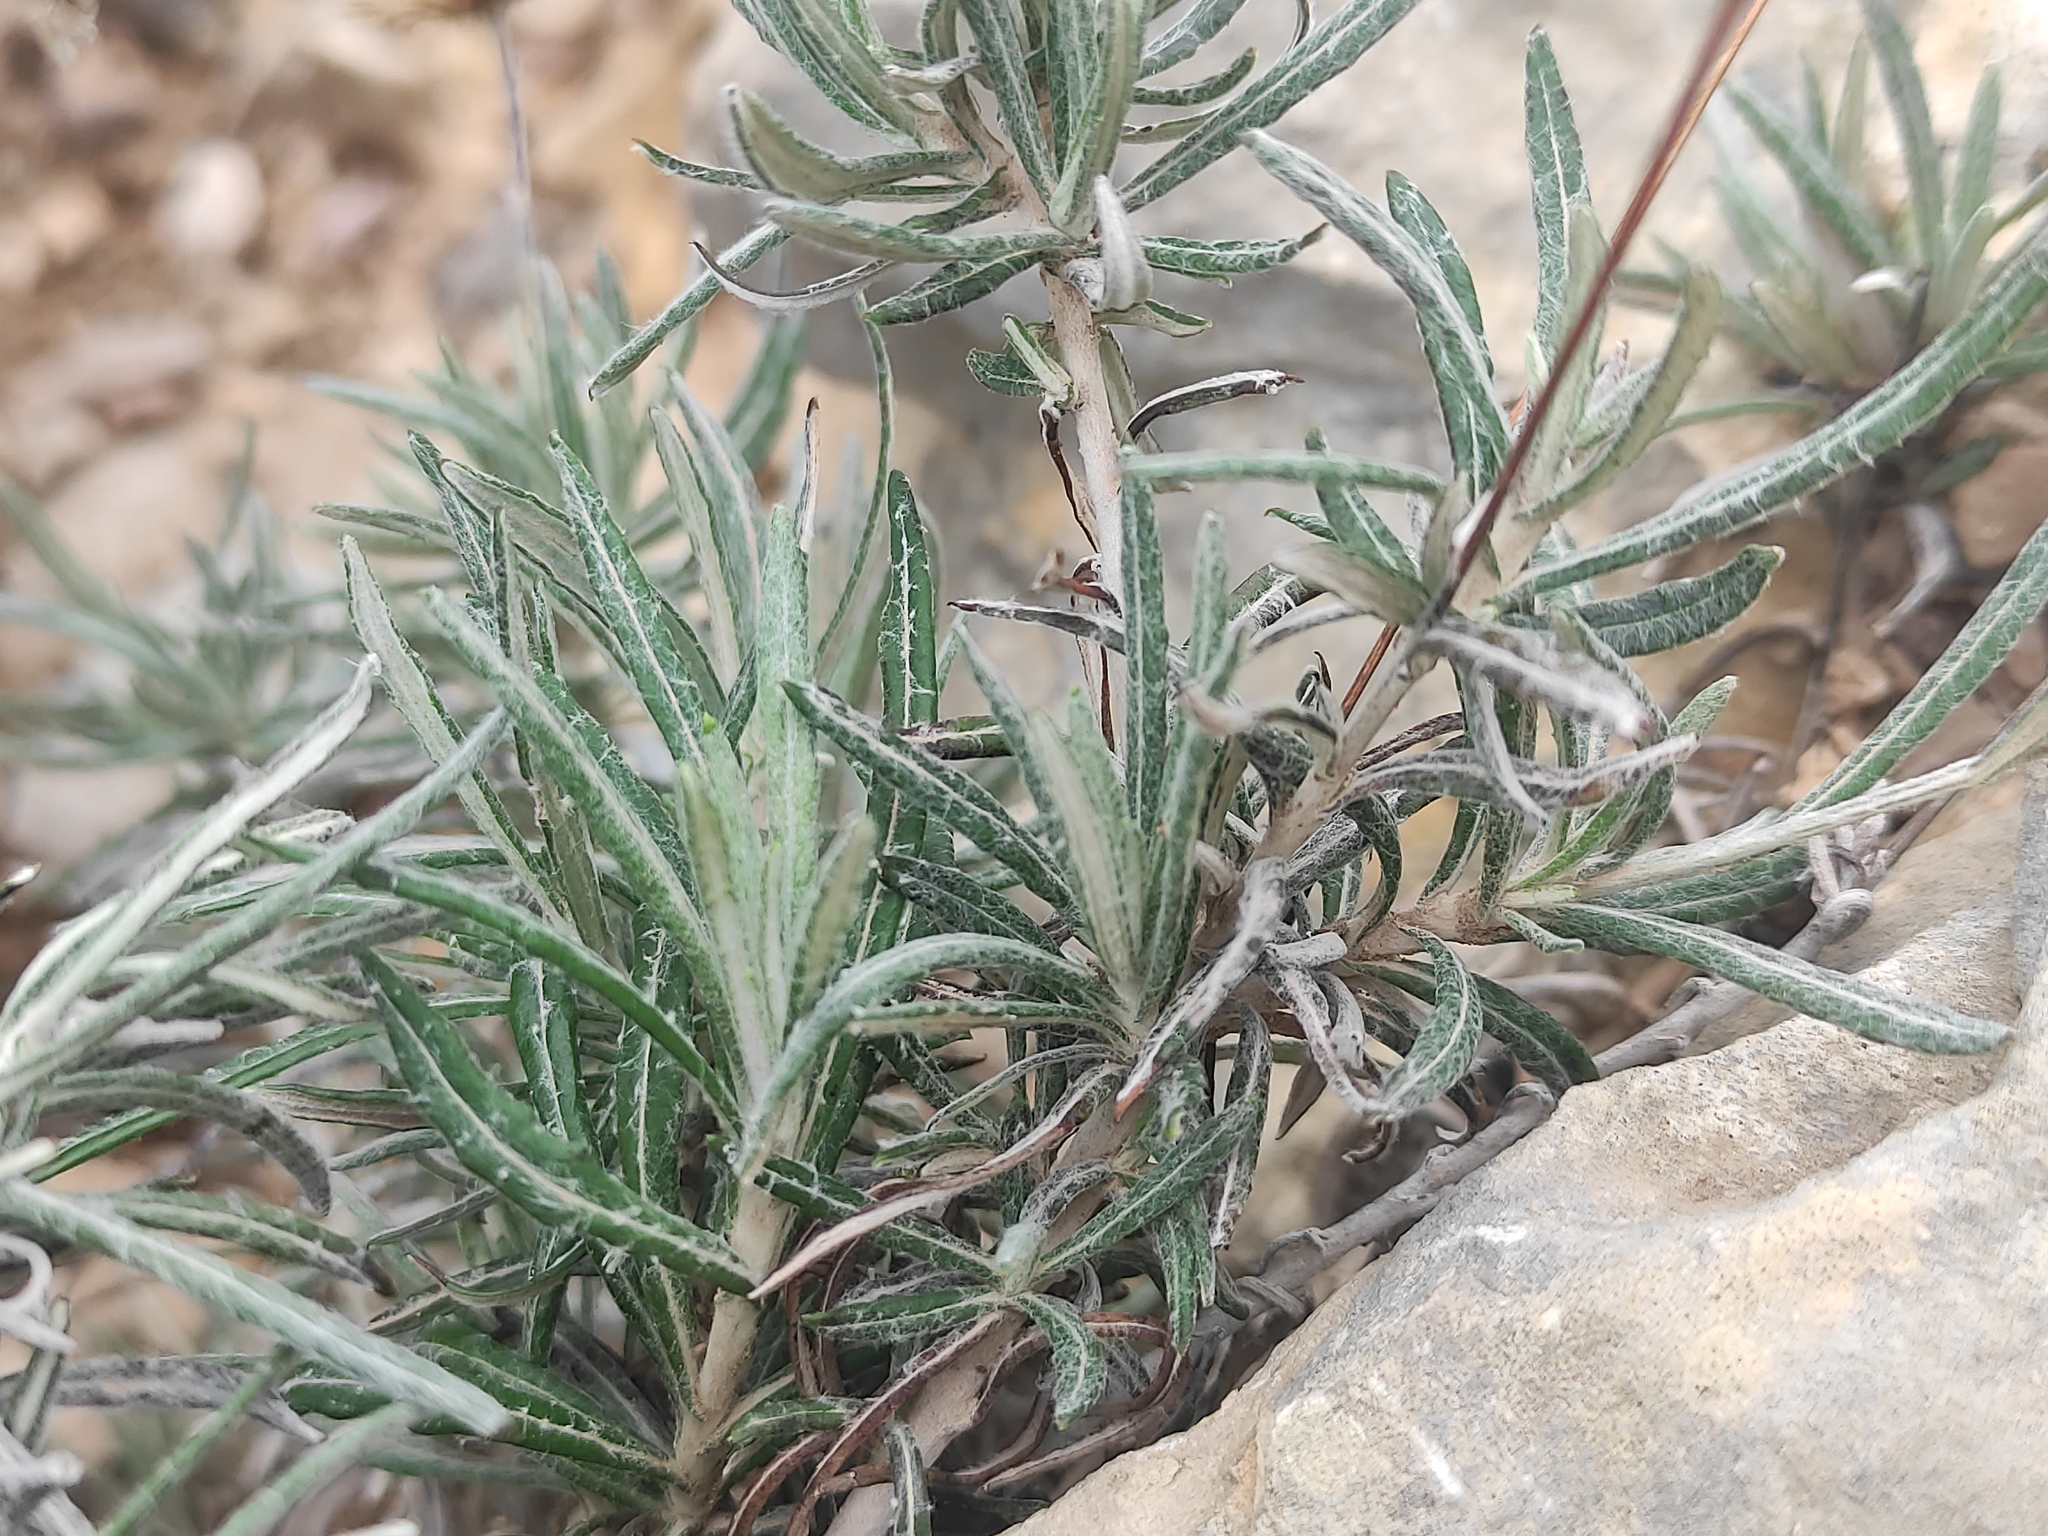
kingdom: Plantae
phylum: Tracheophyta
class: Magnoliopsida
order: Asterales
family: Asteraceae
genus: Phagnalon
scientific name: Phagnalon saxatile
